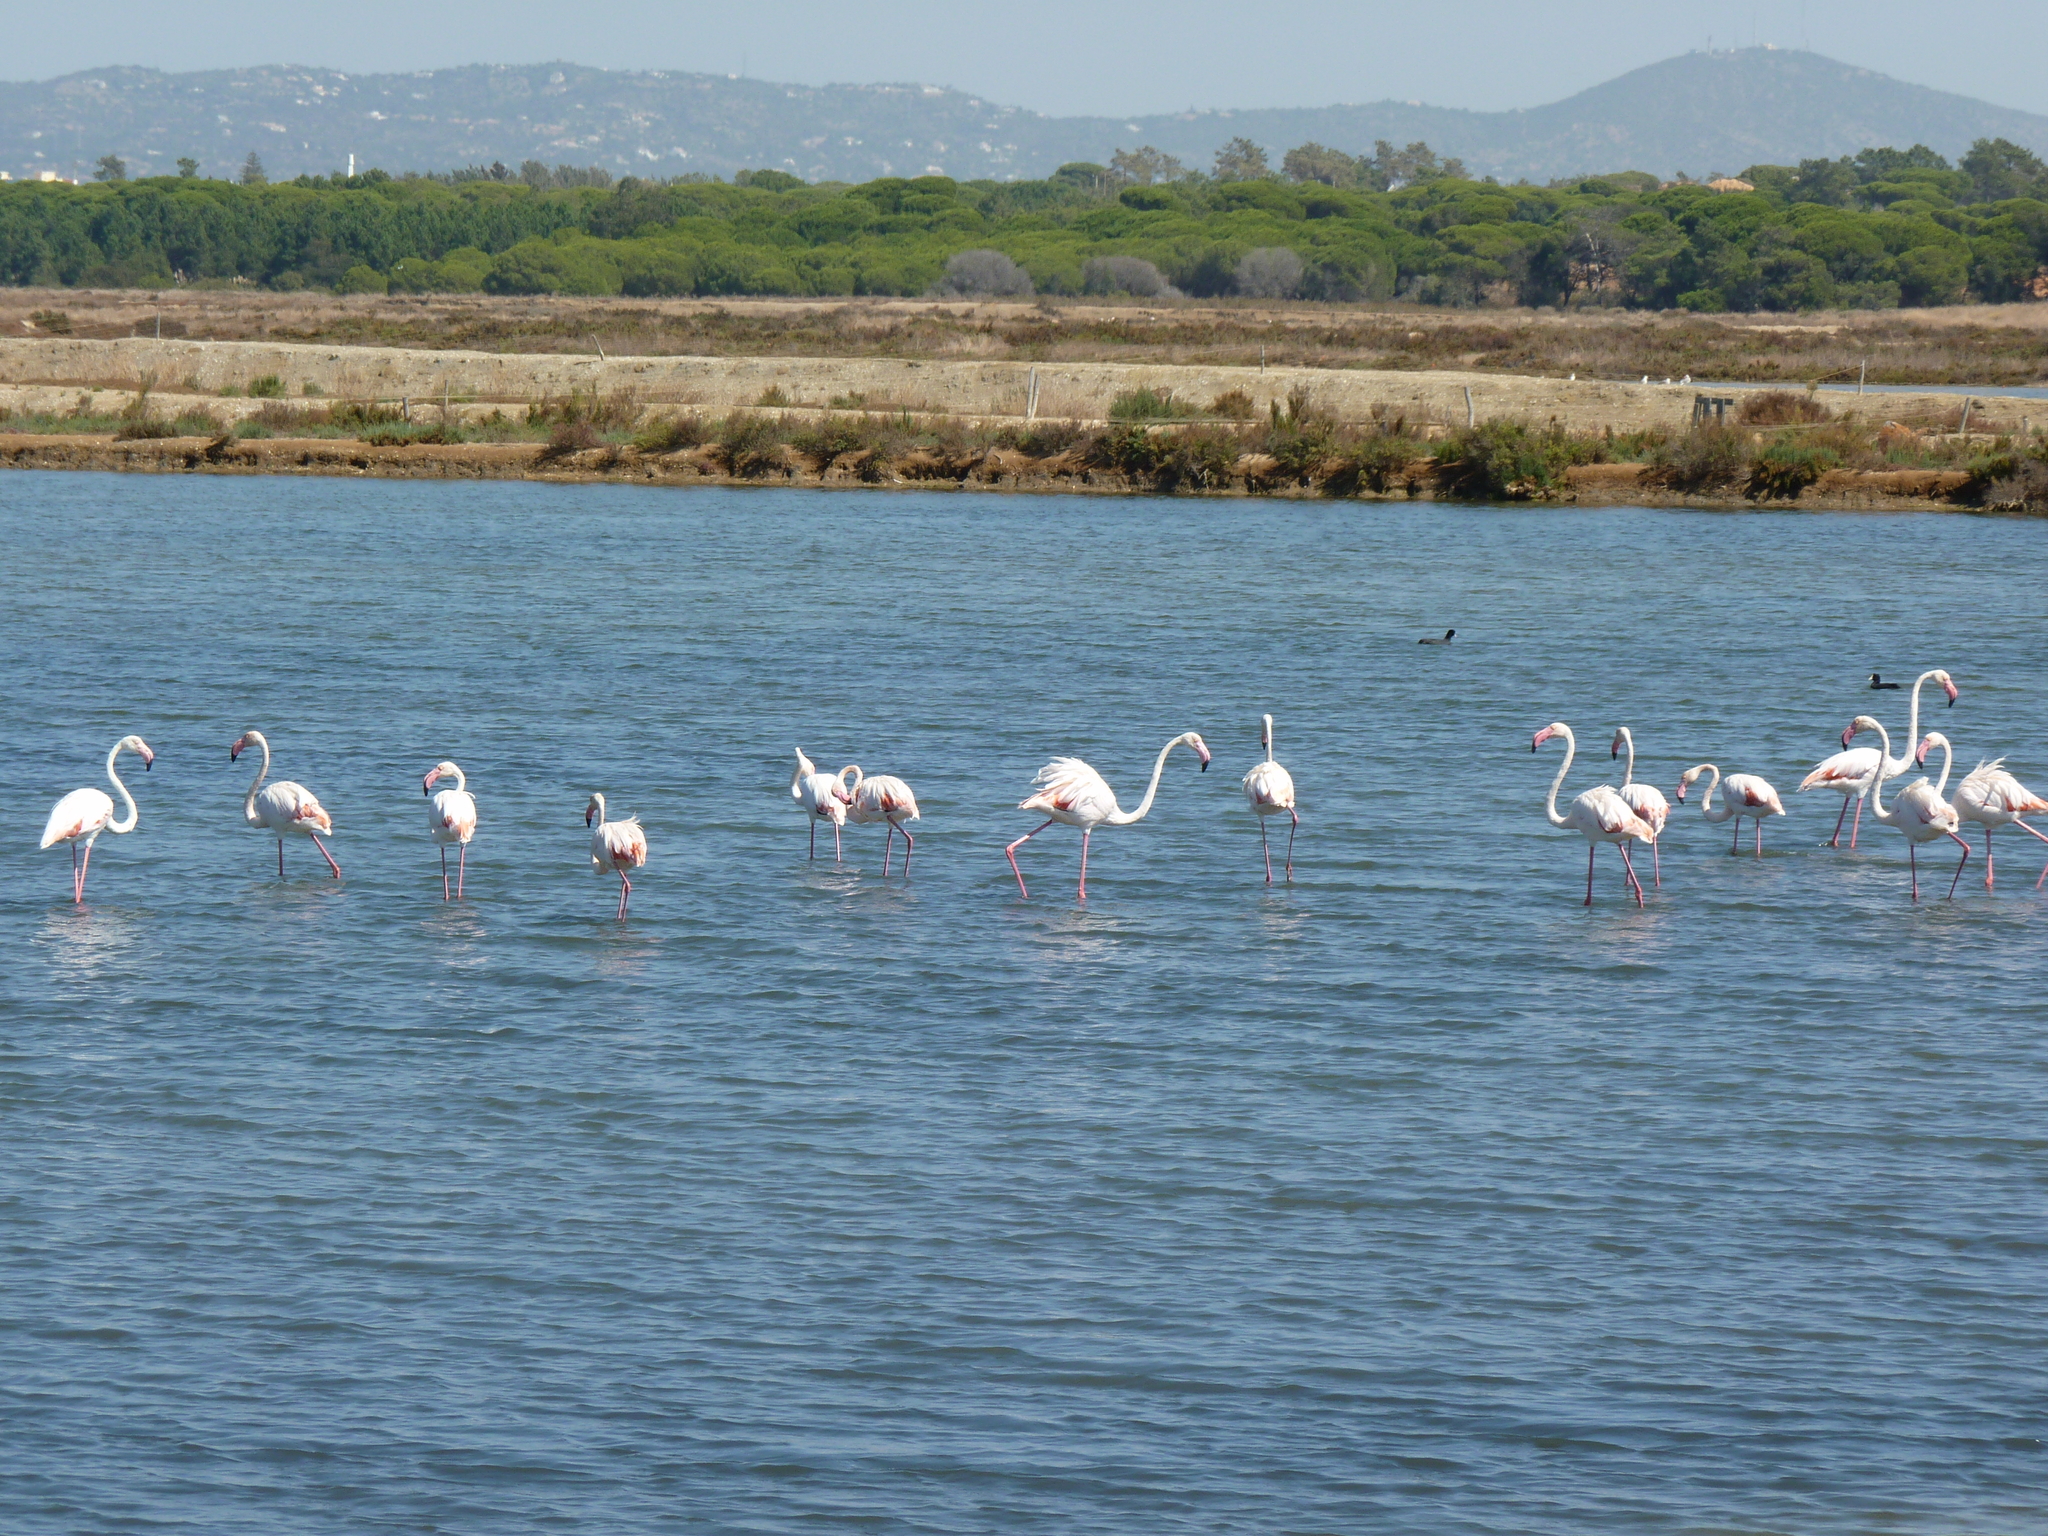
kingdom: Animalia
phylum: Chordata
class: Aves
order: Phoenicopteriformes
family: Phoenicopteridae
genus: Phoenicopterus
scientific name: Phoenicopterus roseus
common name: Greater flamingo
